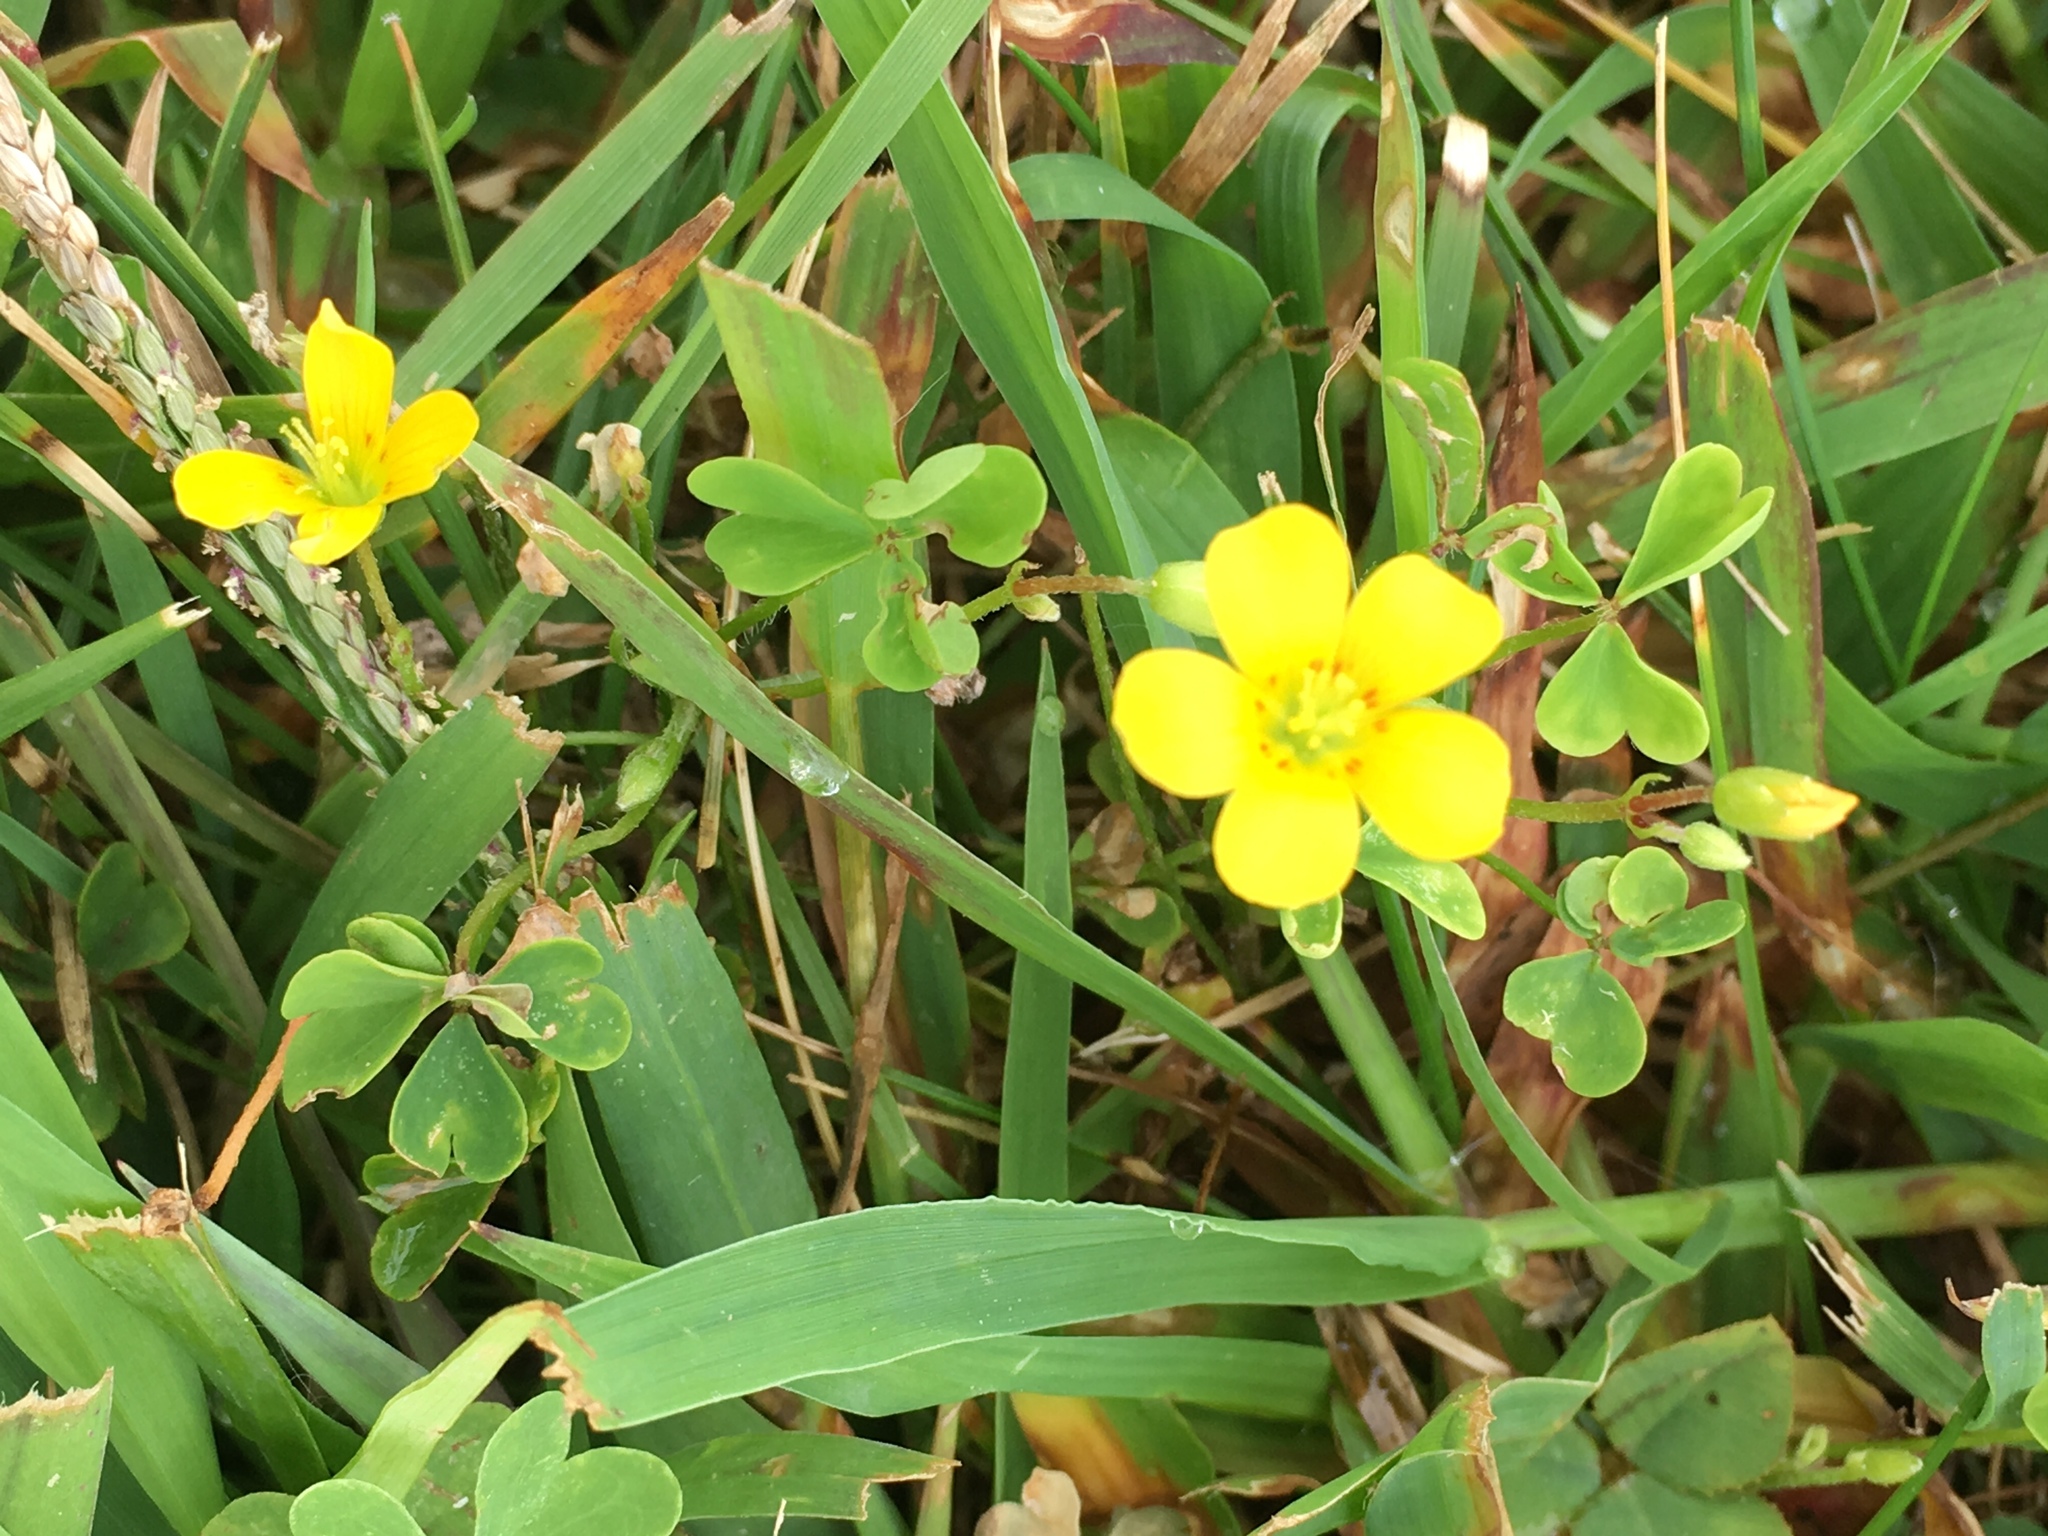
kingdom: Plantae
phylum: Tracheophyta
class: Magnoliopsida
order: Oxalidales
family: Oxalidaceae
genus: Oxalis
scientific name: Oxalis stricta
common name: Upright yellow-sorrel
